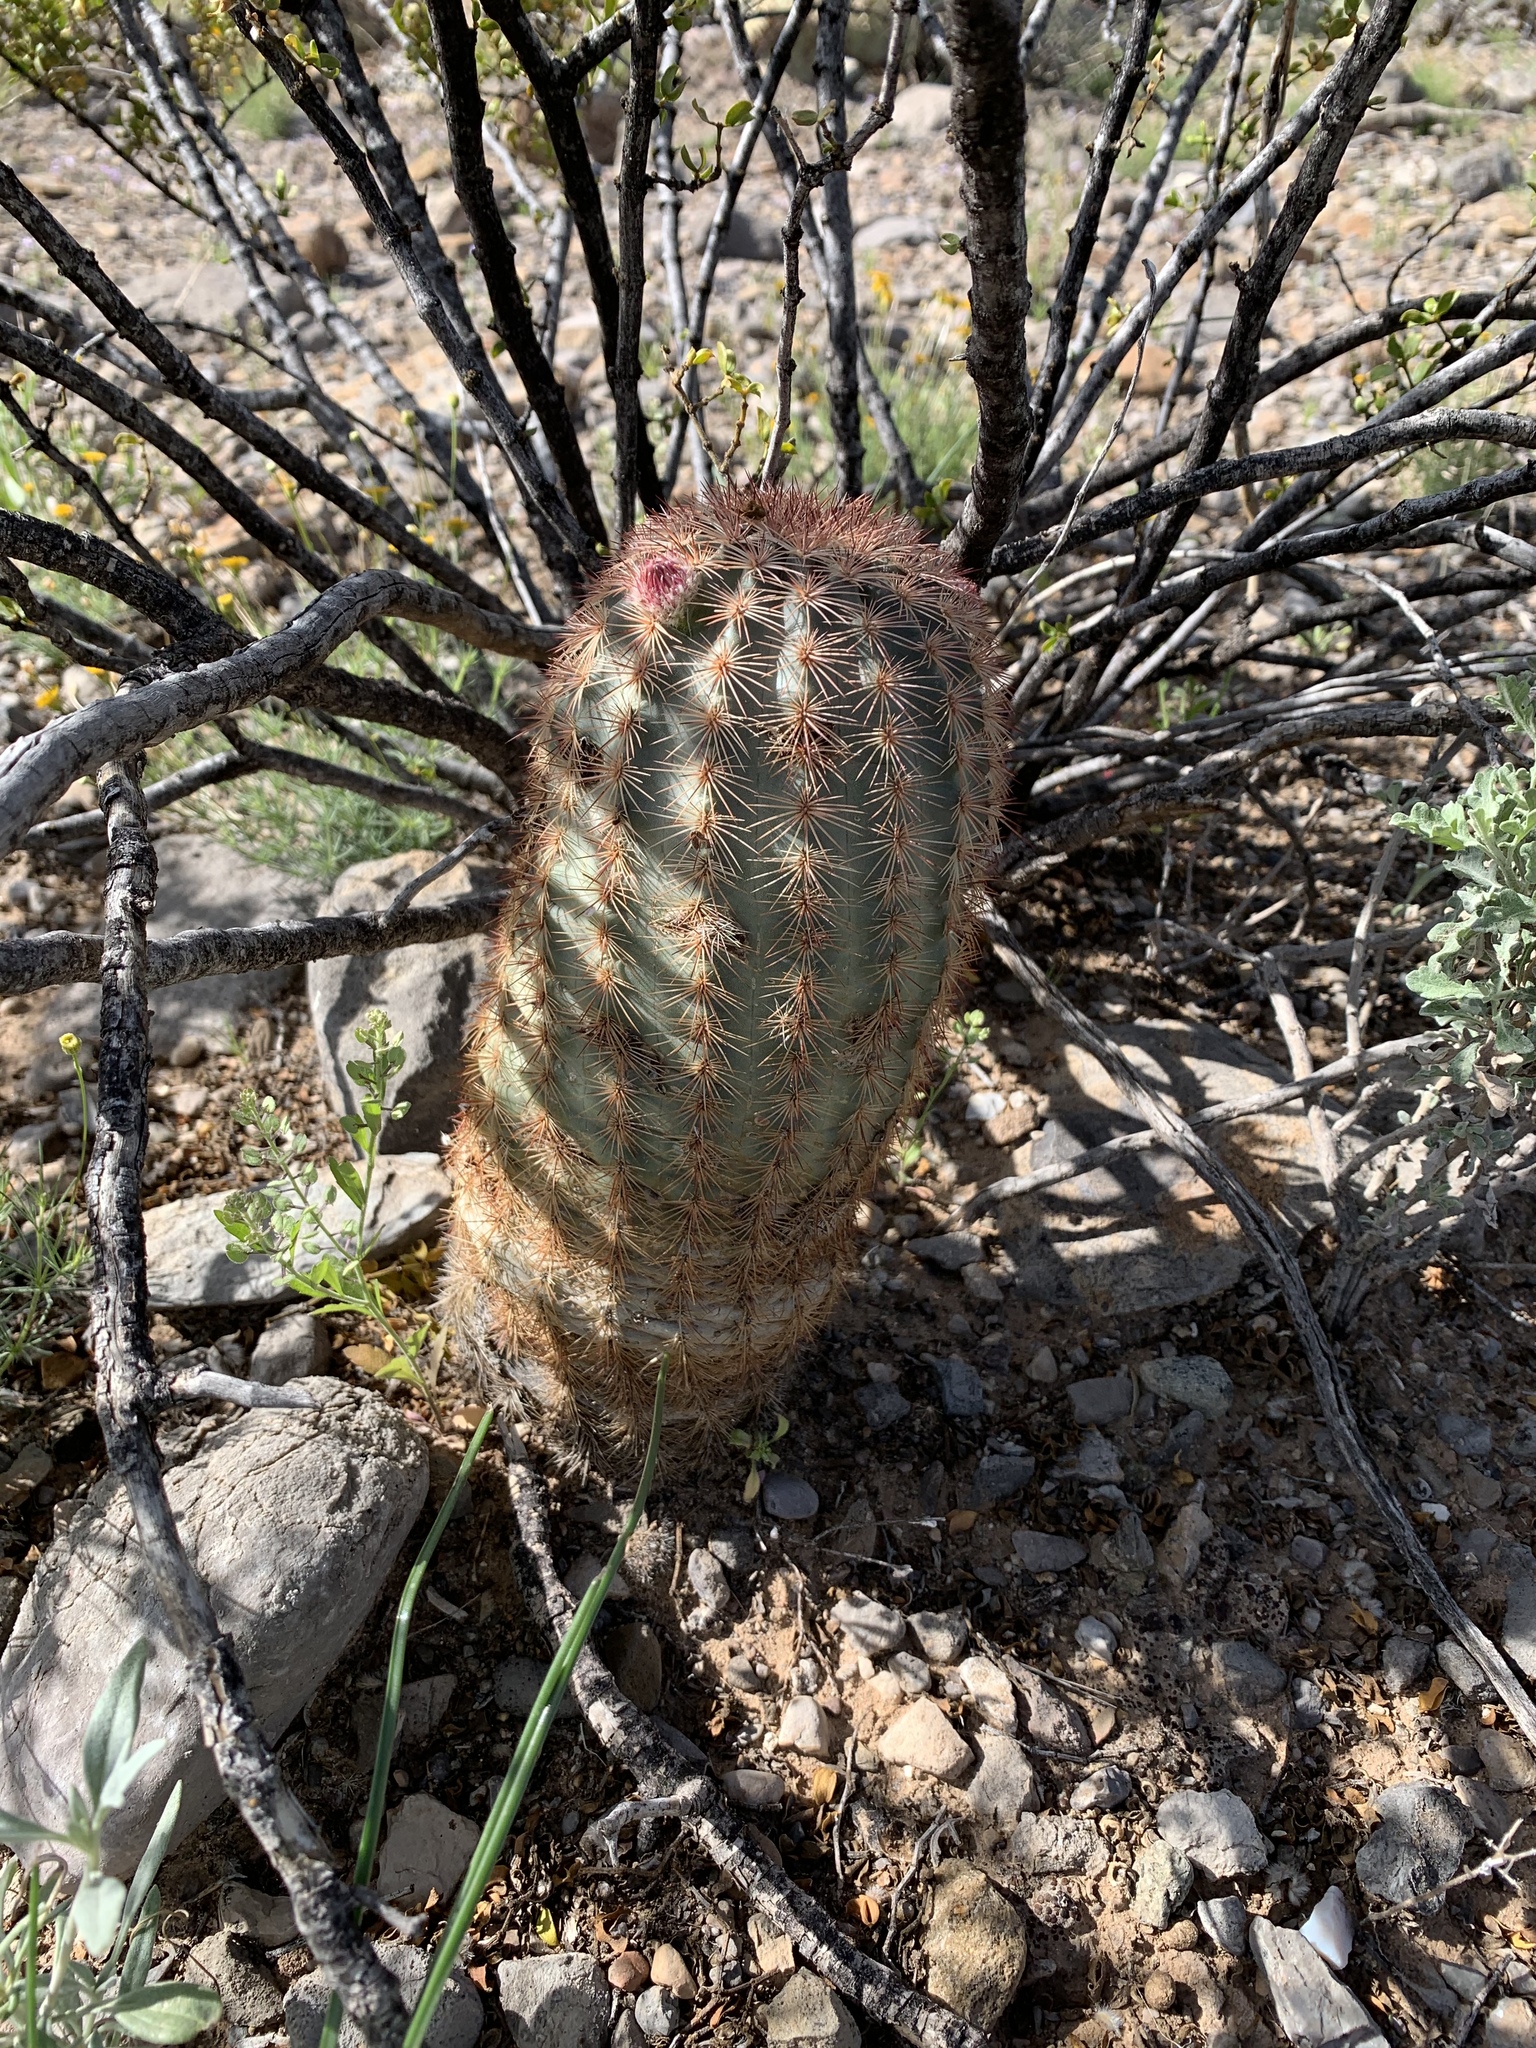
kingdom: Plantae
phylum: Tracheophyta
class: Magnoliopsida
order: Caryophyllales
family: Cactaceae
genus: Echinocereus
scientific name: Echinocereus dasyacanthus
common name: Spiny hedgehog cactus
